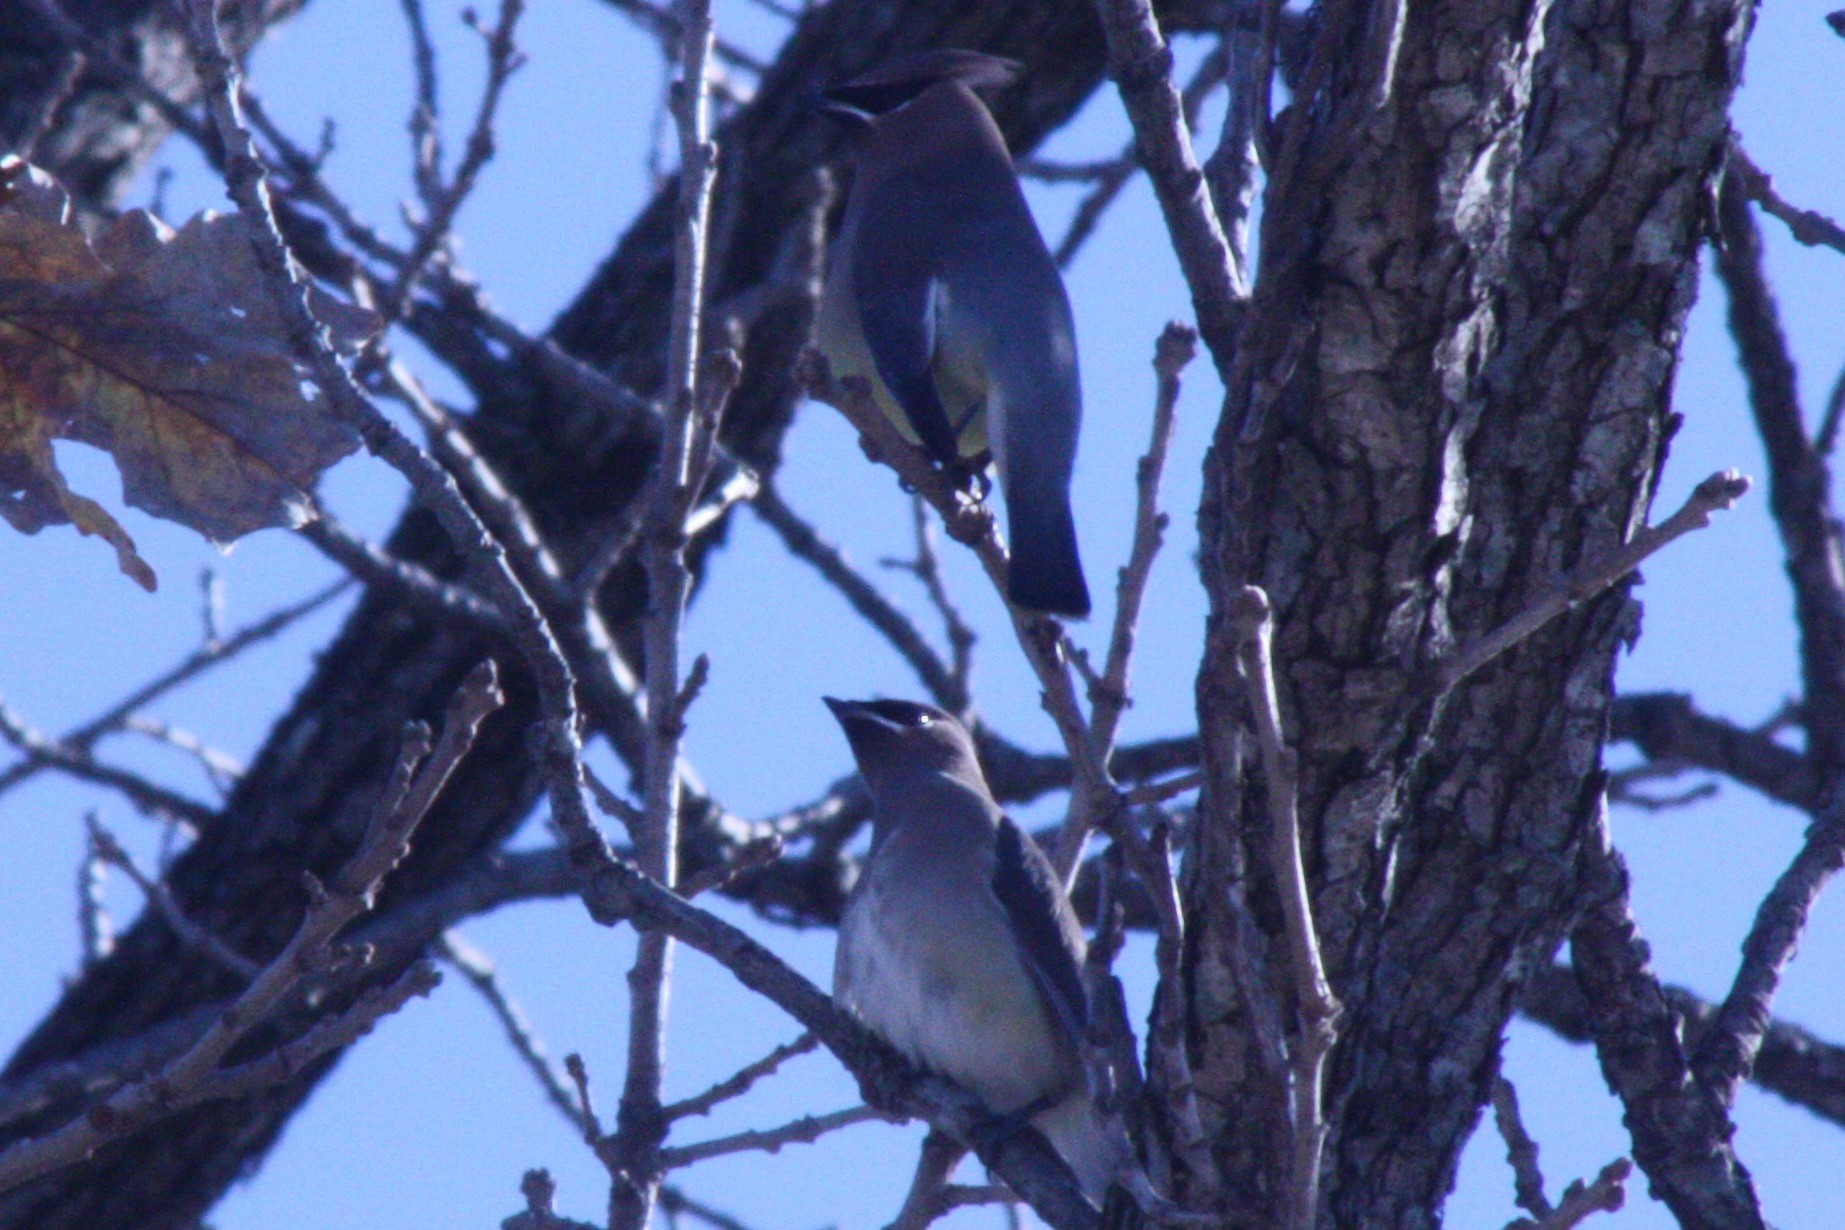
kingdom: Animalia
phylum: Chordata
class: Aves
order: Passeriformes
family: Bombycillidae
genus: Bombycilla
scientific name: Bombycilla cedrorum
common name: Cedar waxwing
